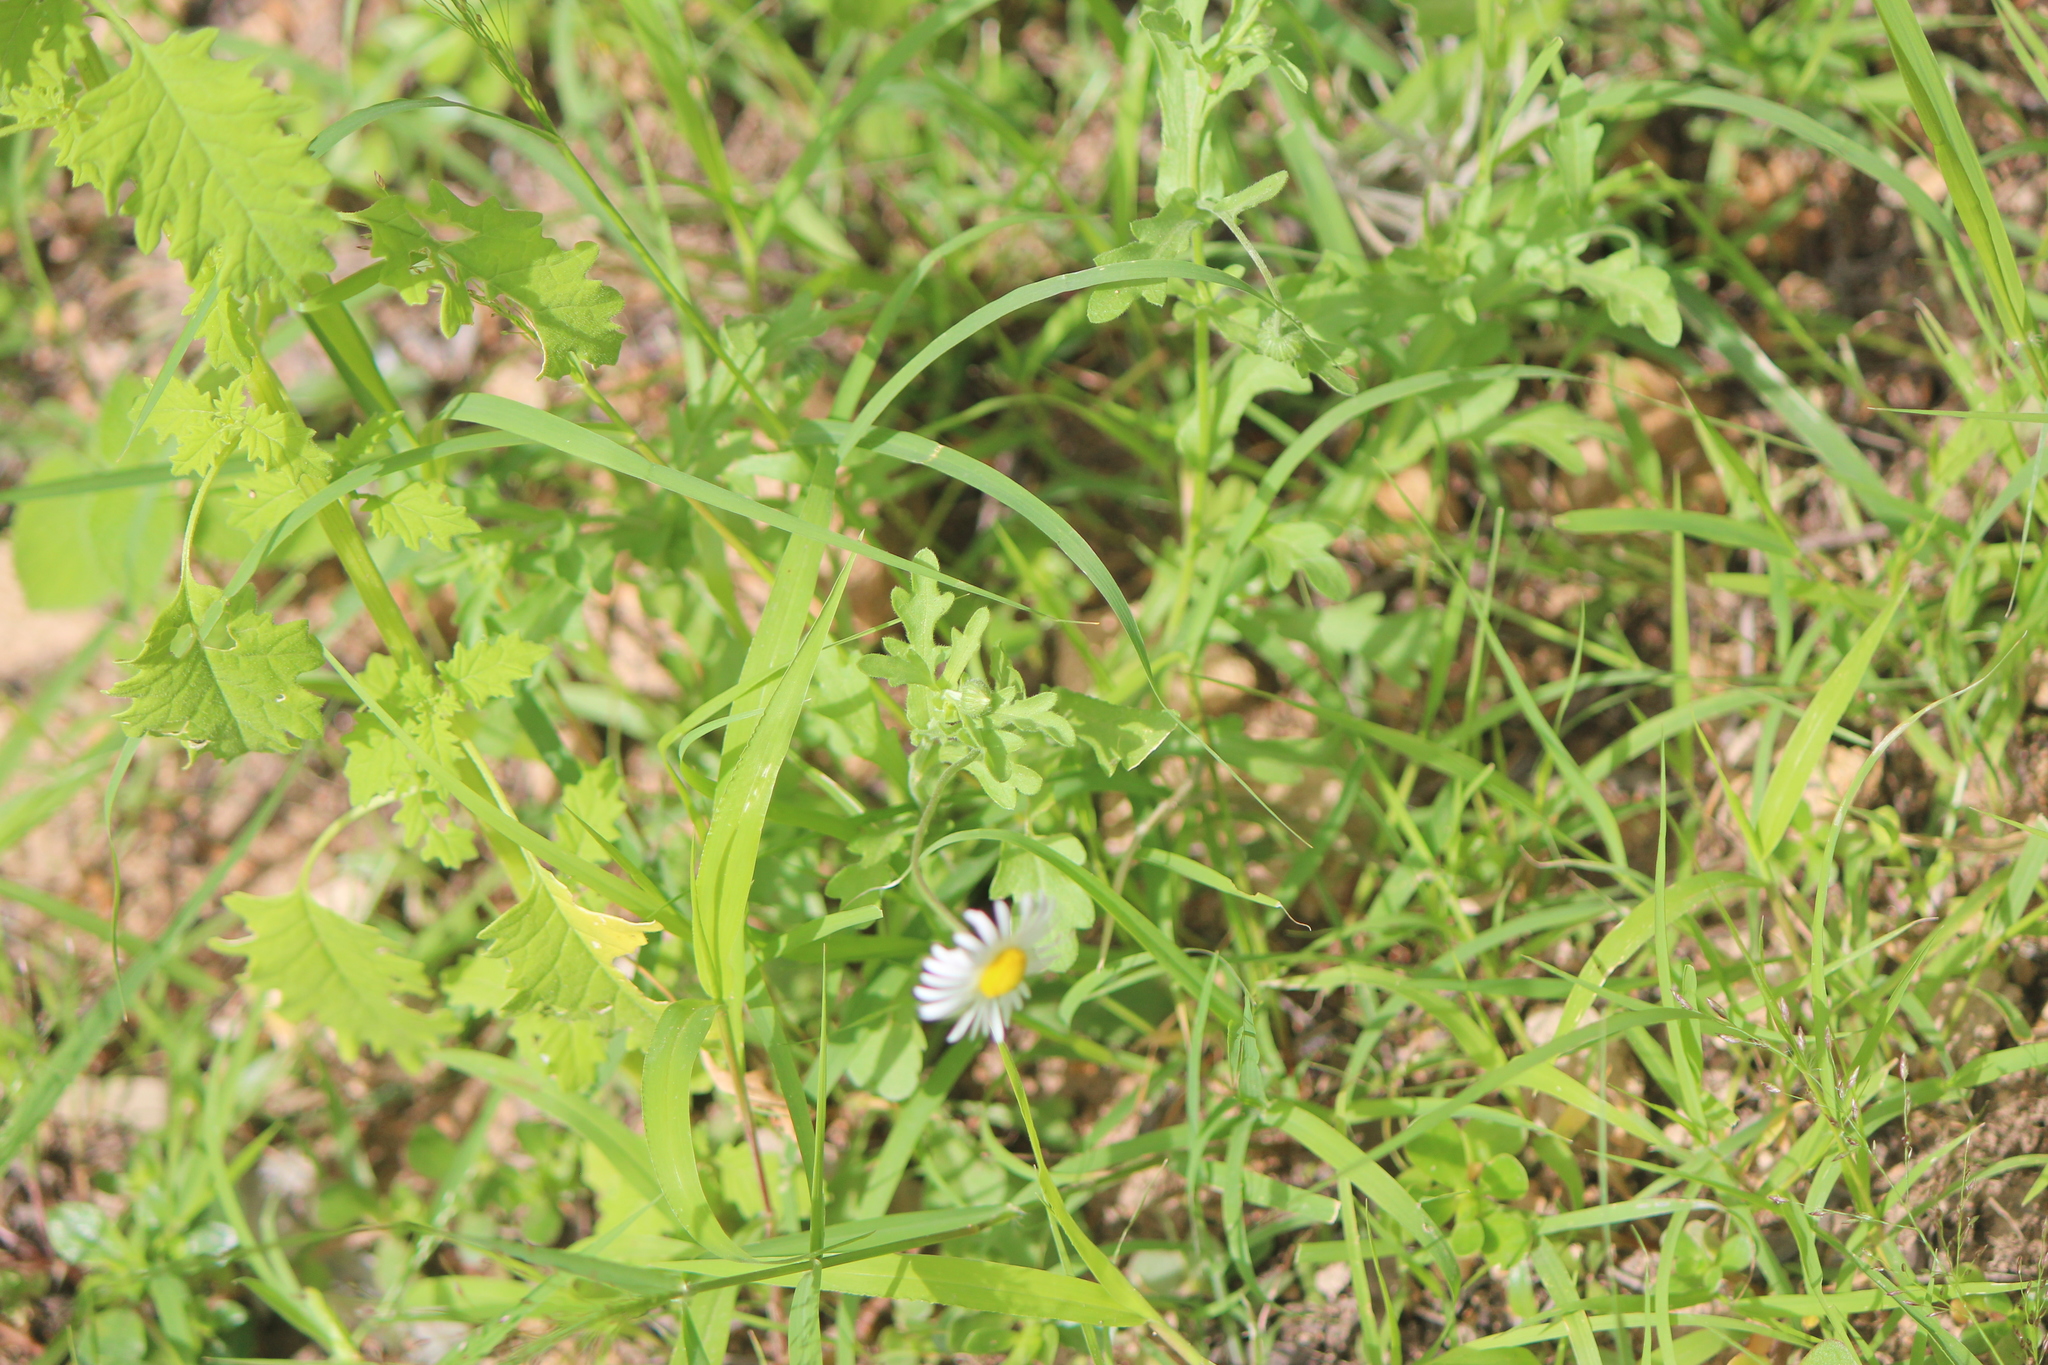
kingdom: Plantae
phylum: Tracheophyta
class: Magnoliopsida
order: Asterales
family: Asteraceae
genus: Aphanostephus
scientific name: Aphanostephus ramosissimus
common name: Plains lazy daisy
